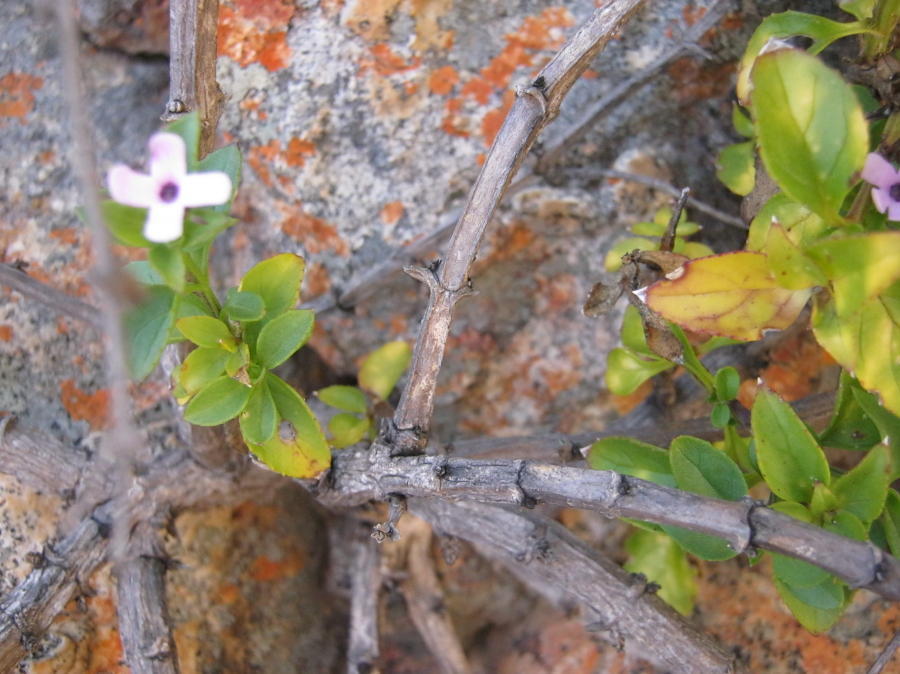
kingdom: Plantae
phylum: Tracheophyta
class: Magnoliopsida
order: Lamiales
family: Scrophulariaceae
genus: Teedia
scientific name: Teedia lucida
